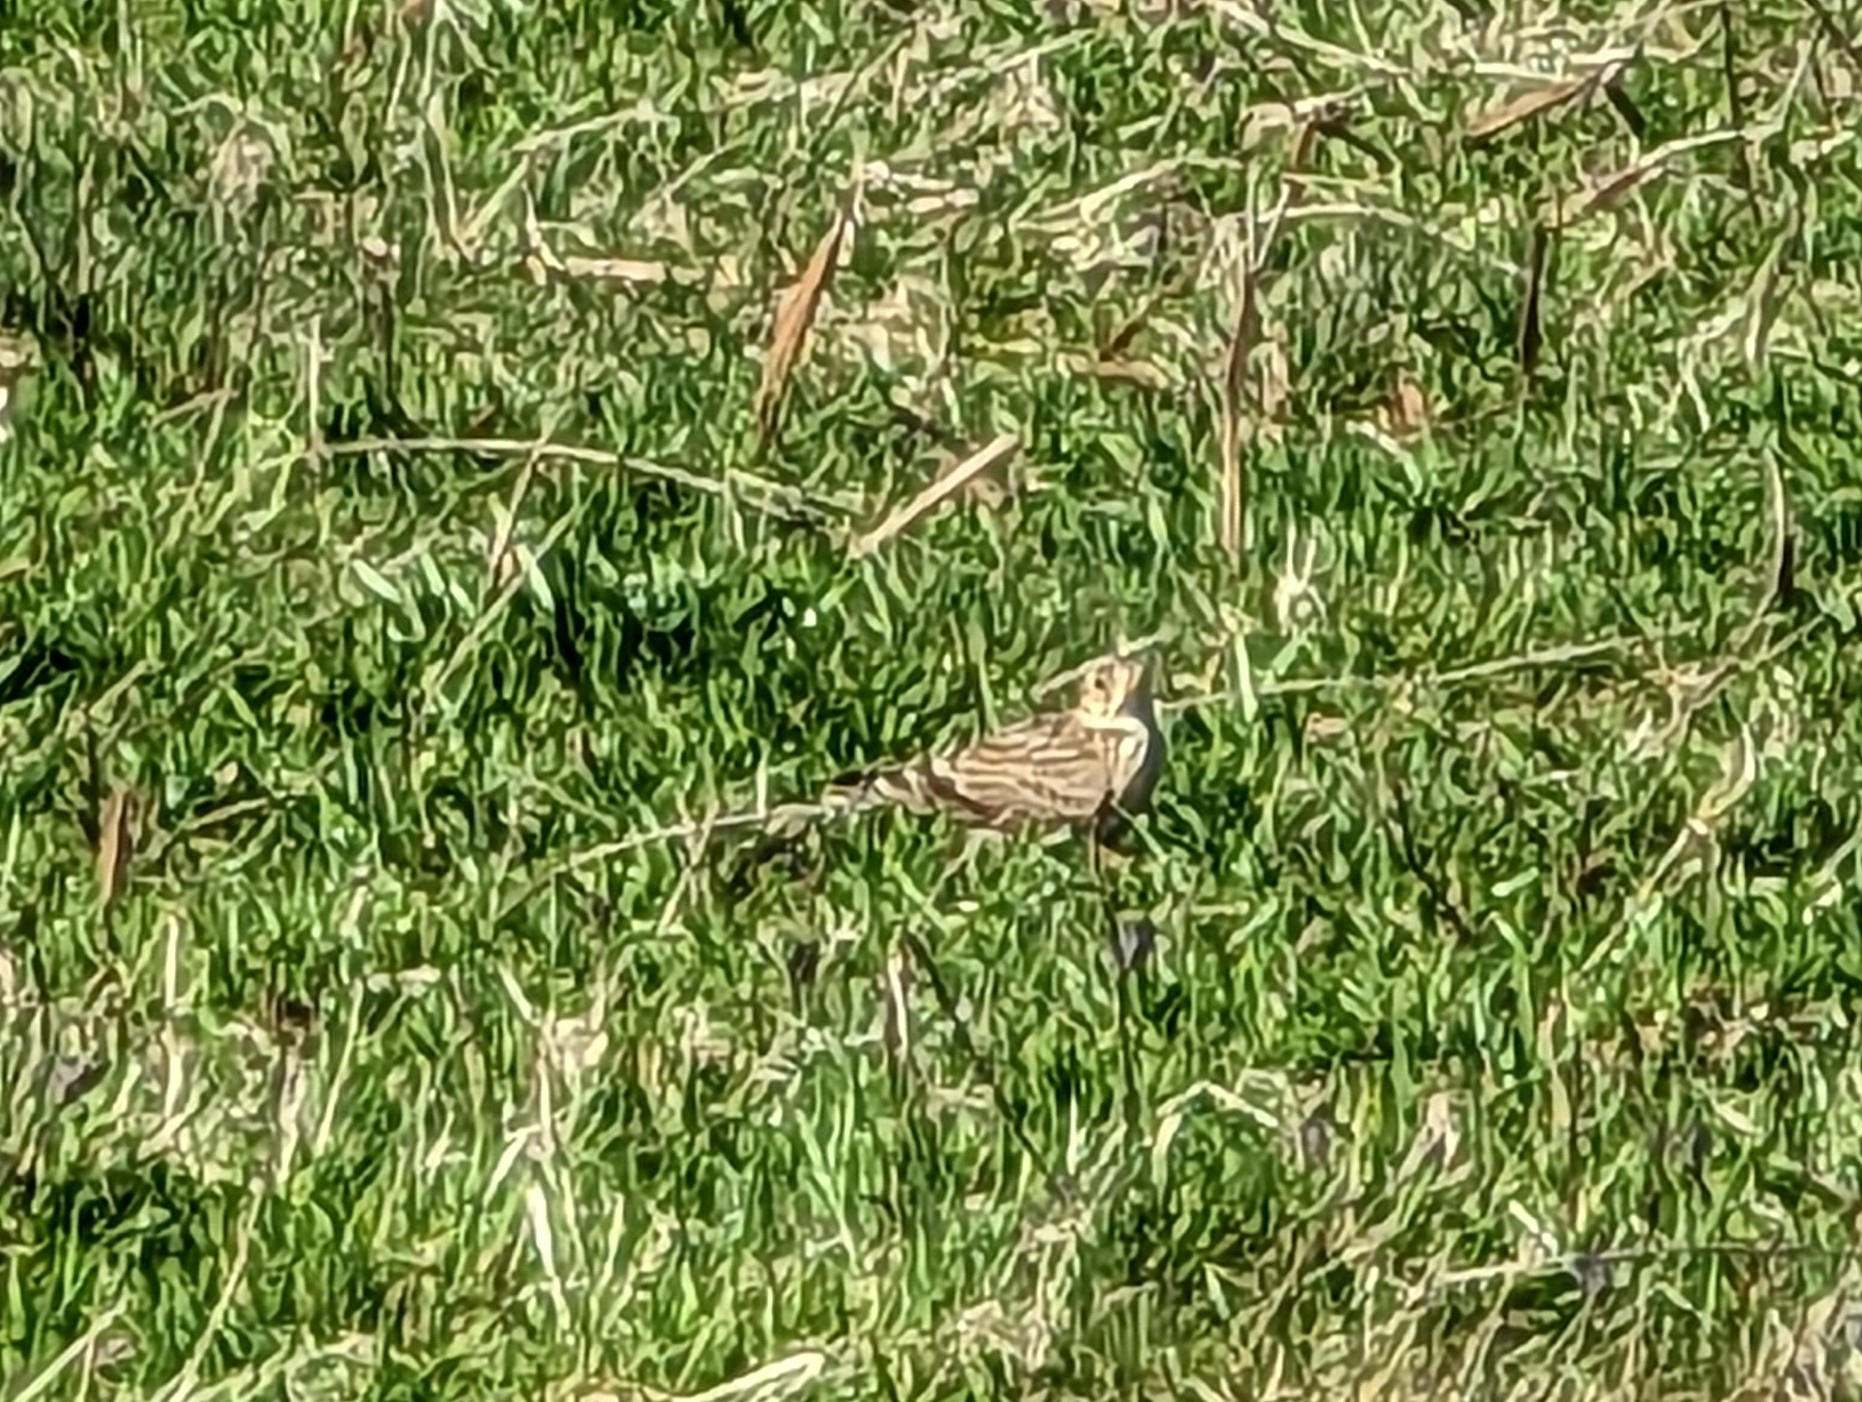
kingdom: Animalia
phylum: Chordata
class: Aves
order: Passeriformes
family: Alaudidae
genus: Alauda
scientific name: Alauda arvensis
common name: Eurasian skylark
